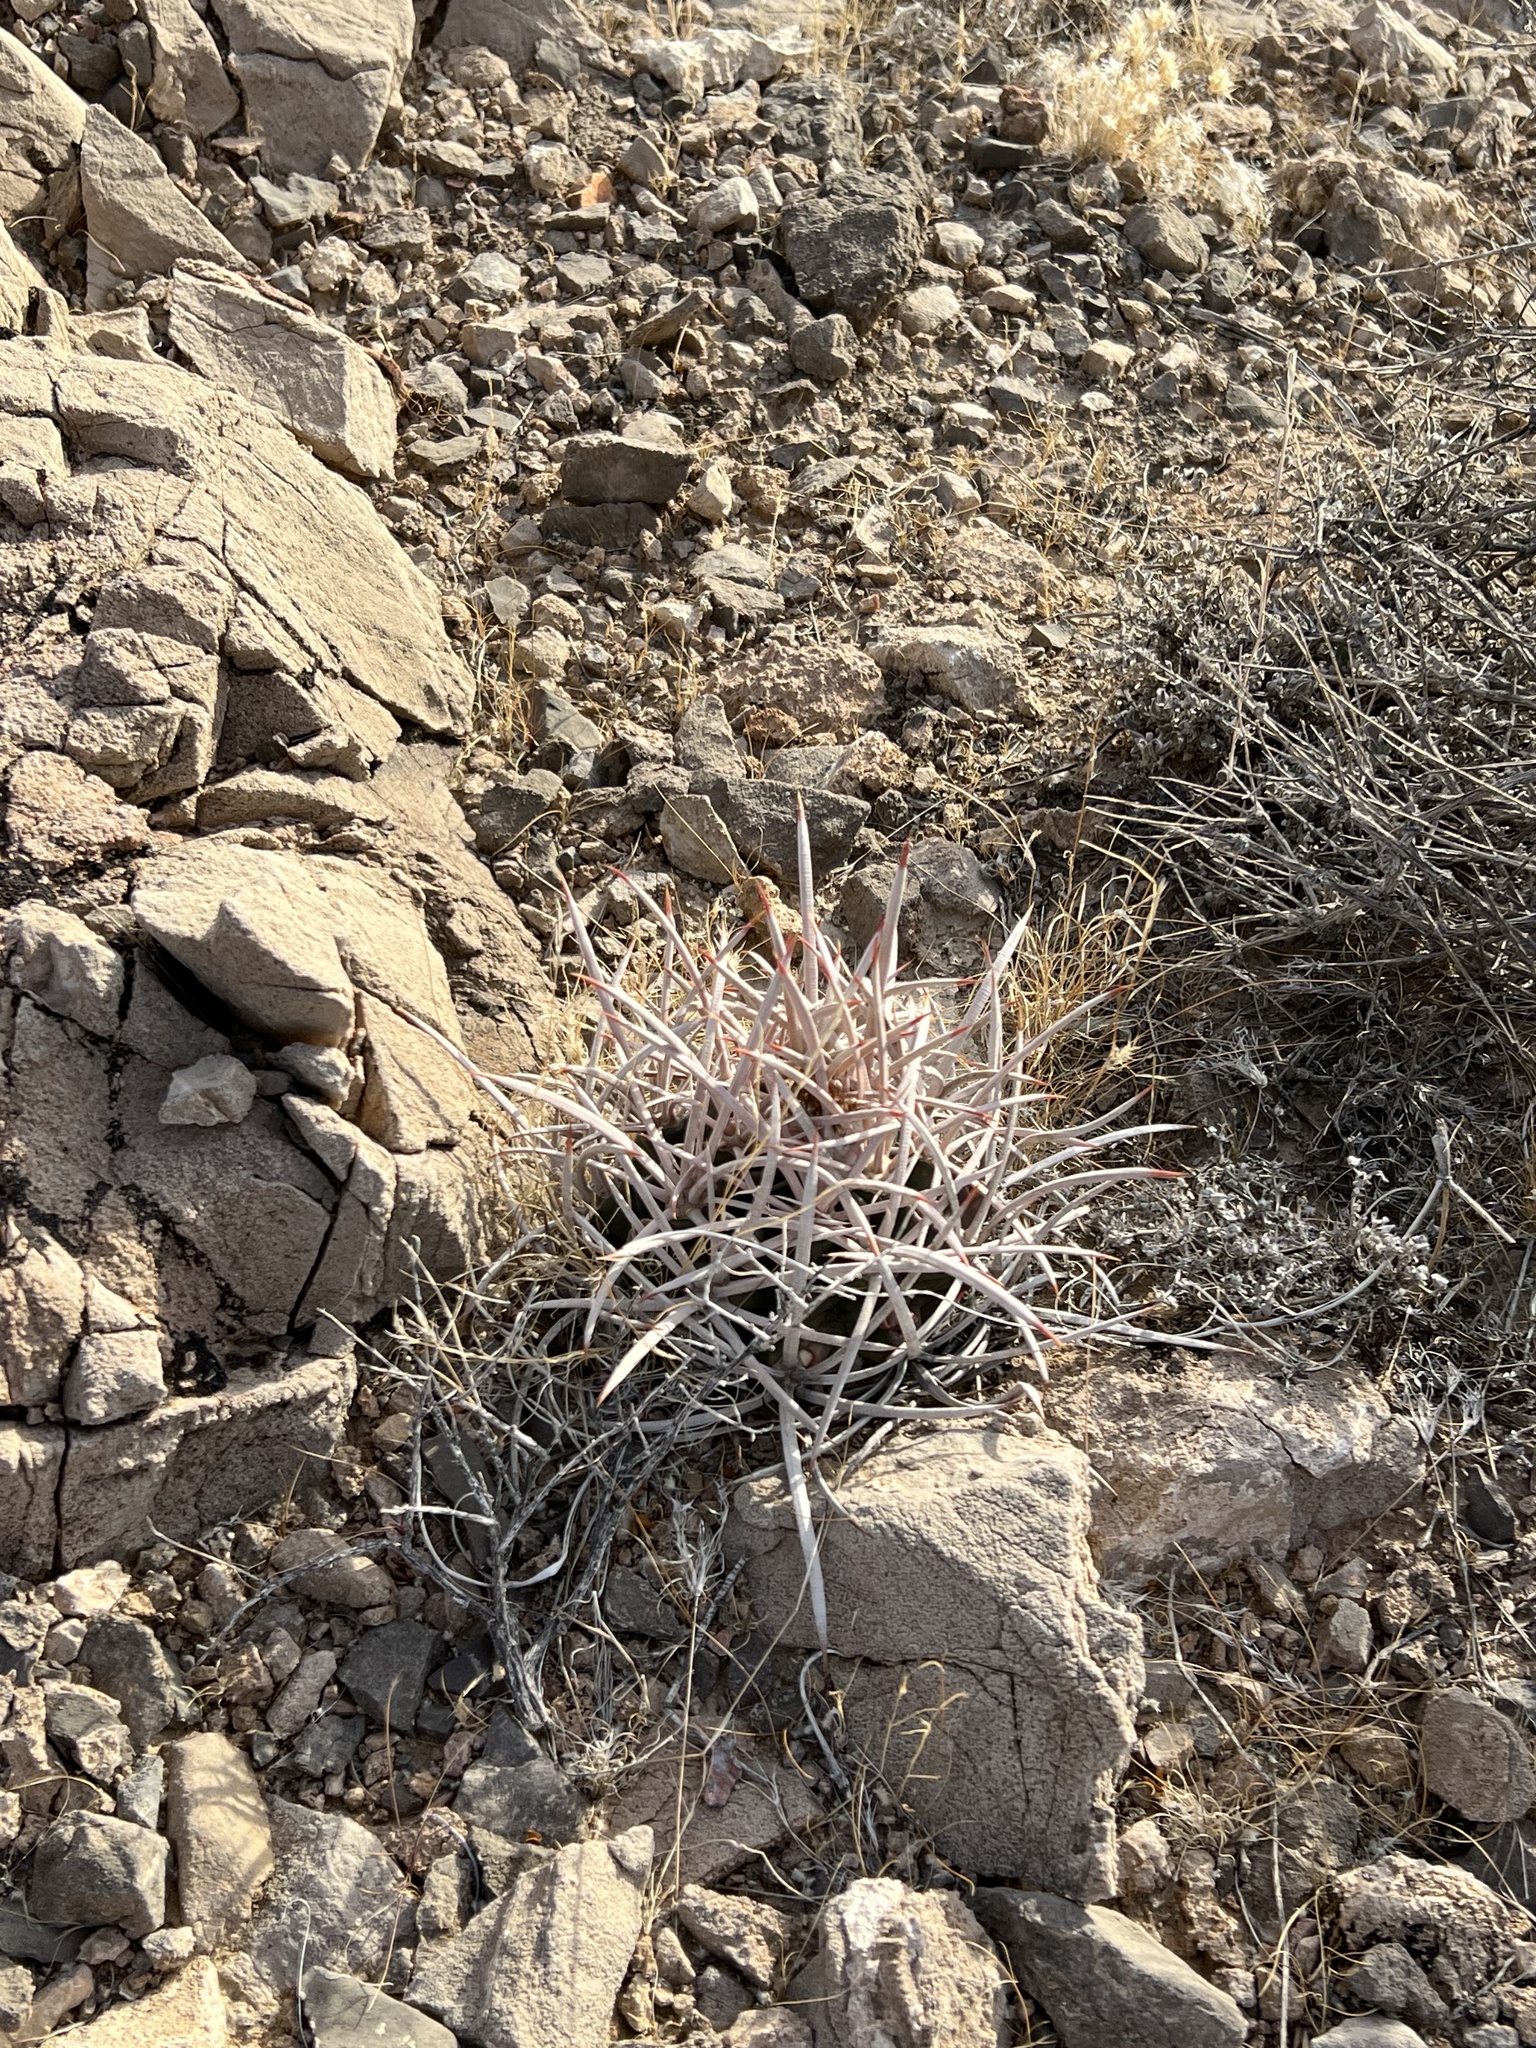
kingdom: Plantae
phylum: Tracheophyta
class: Magnoliopsida
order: Caryophyllales
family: Cactaceae
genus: Echinocactus
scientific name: Echinocactus polycephalus
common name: Cottontop cactus
